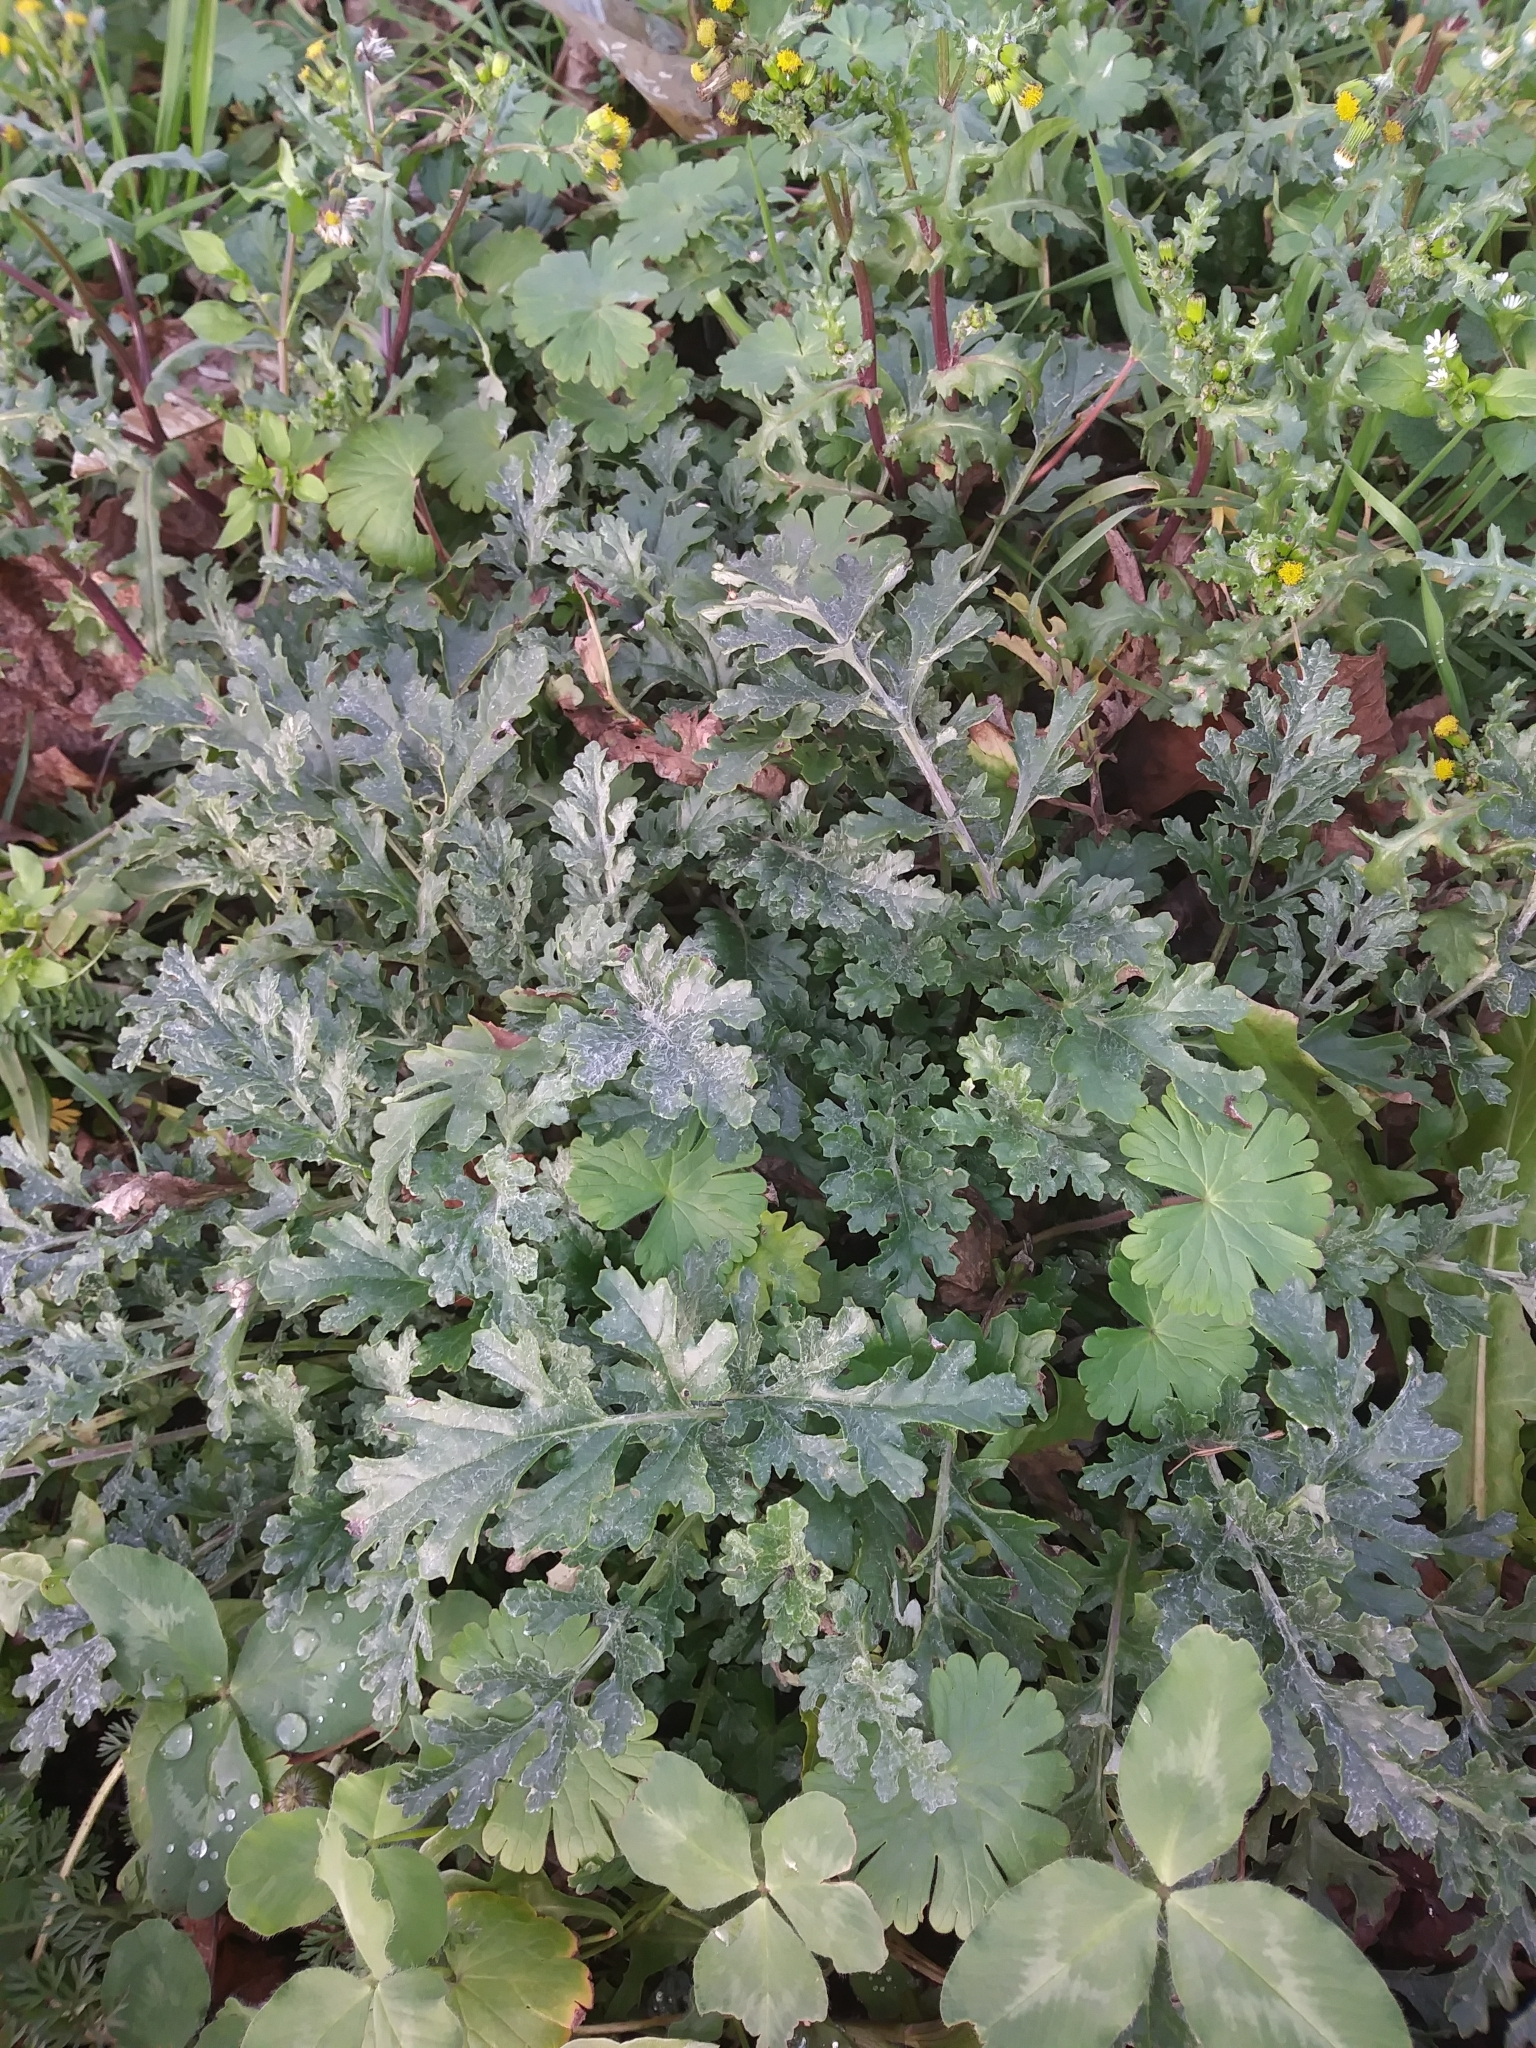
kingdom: Plantae
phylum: Tracheophyta
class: Magnoliopsida
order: Asterales
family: Asteraceae
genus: Jacobaea
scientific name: Jacobaea vulgaris
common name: Stinking willie
